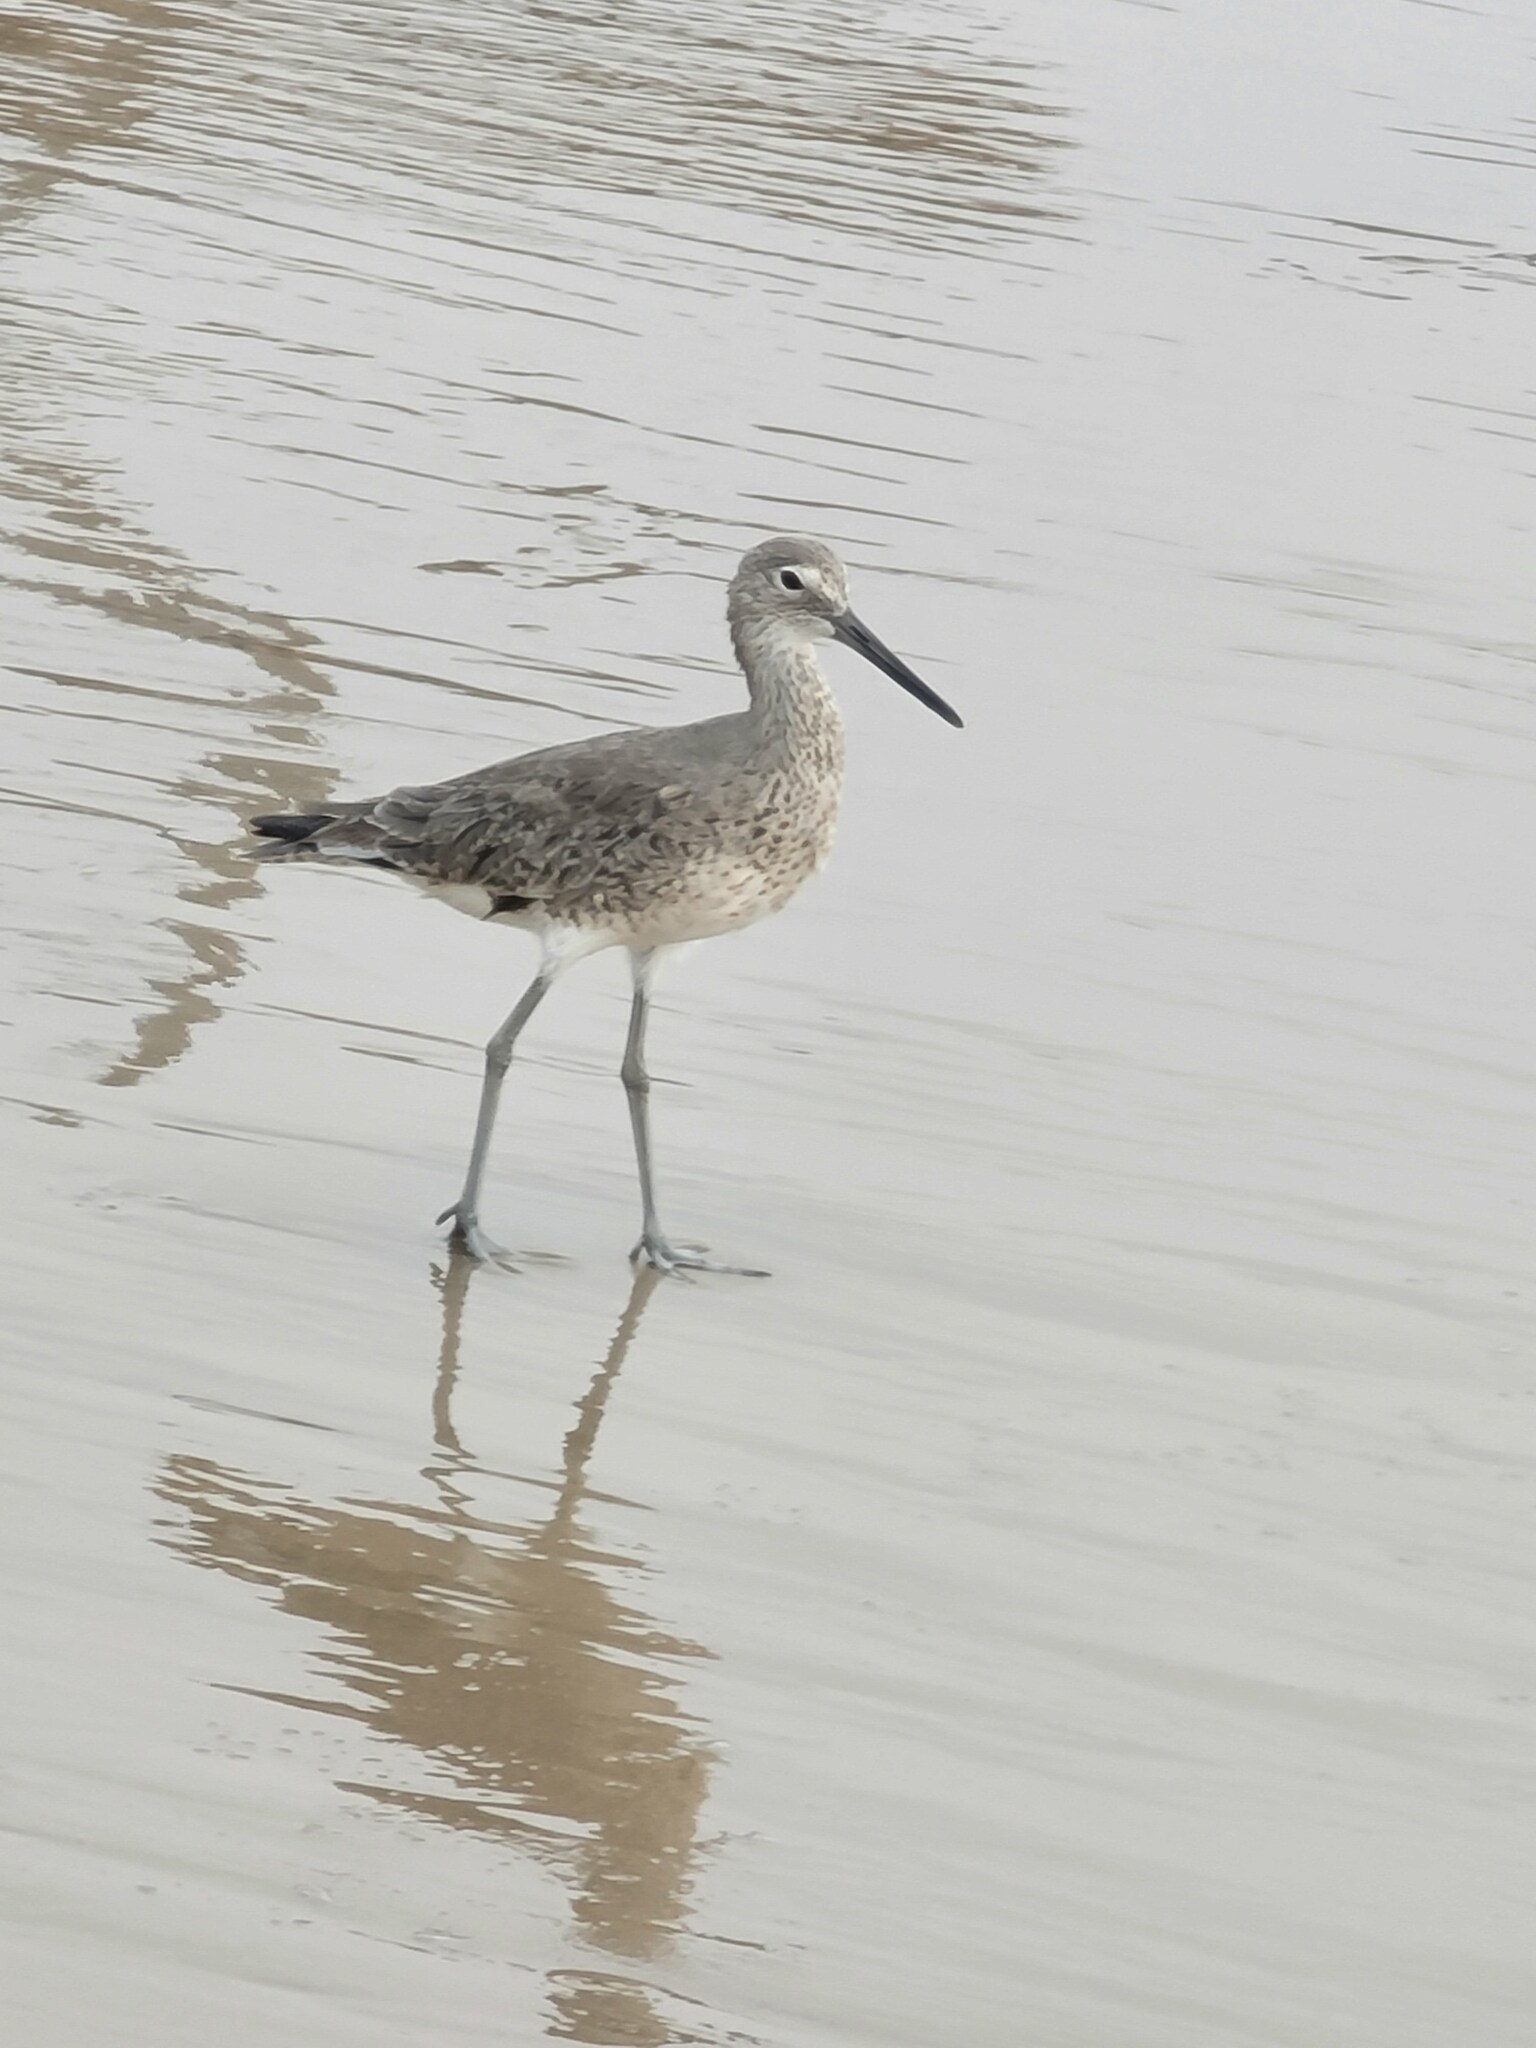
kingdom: Animalia
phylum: Chordata
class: Aves
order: Charadriiformes
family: Scolopacidae
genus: Tringa
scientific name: Tringa semipalmata
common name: Willet
